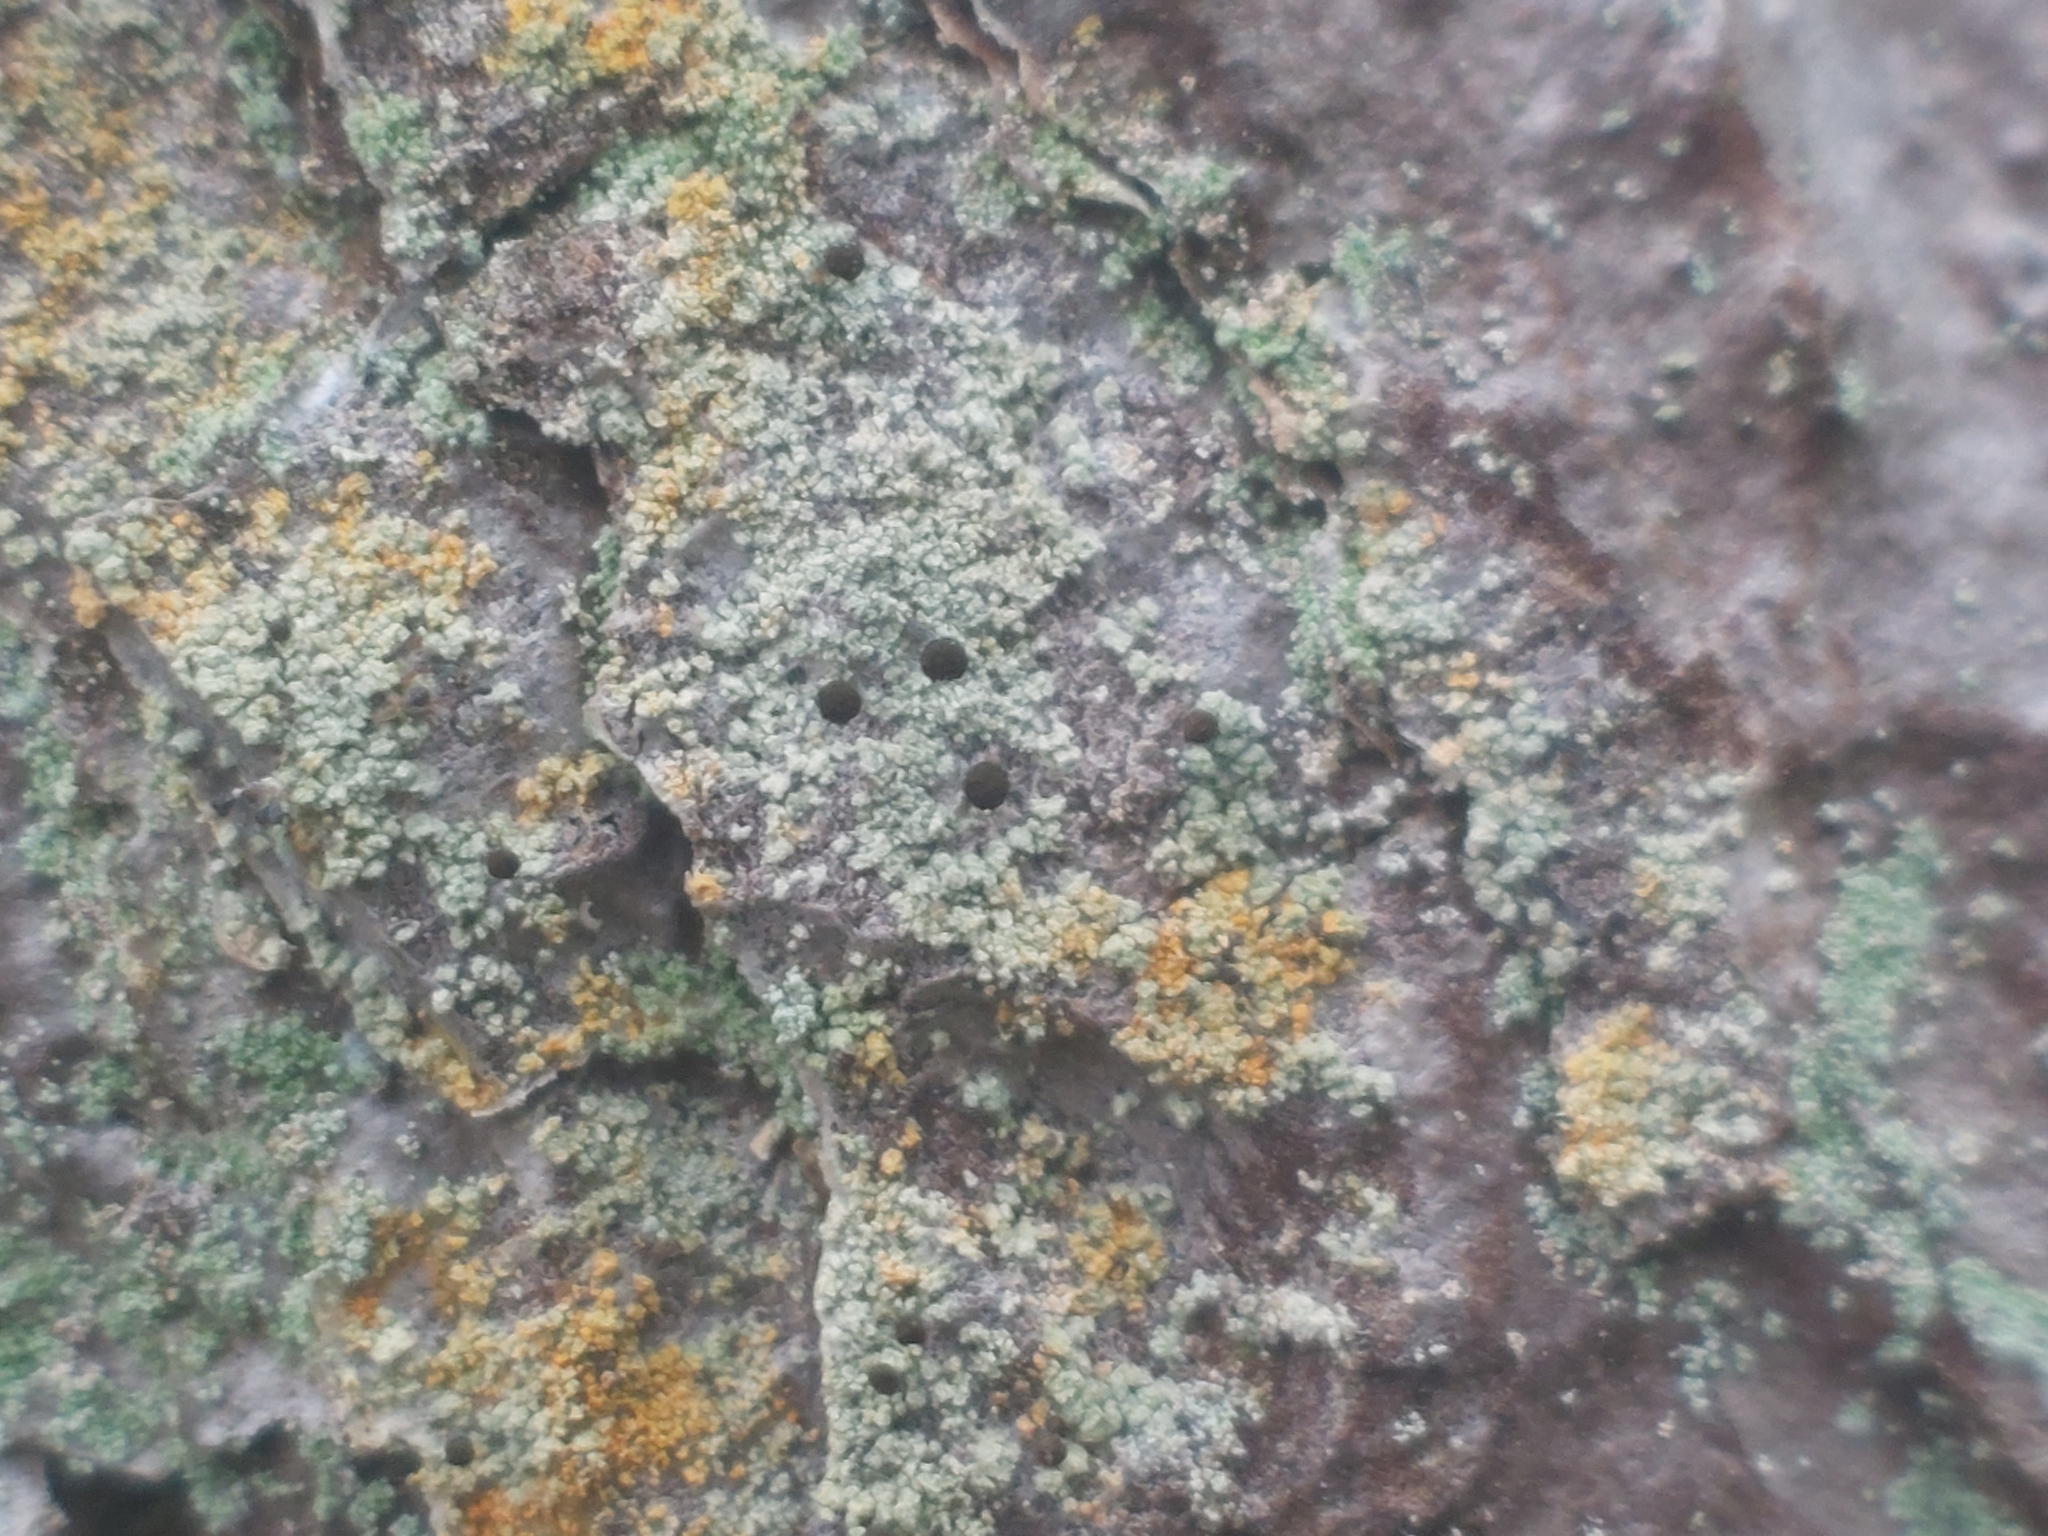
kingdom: Fungi
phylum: Ascomycota
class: Coniocybomycetes
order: Coniocybales
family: Coniocybaceae
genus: Chaenotheca
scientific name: Chaenotheca ferruginea
